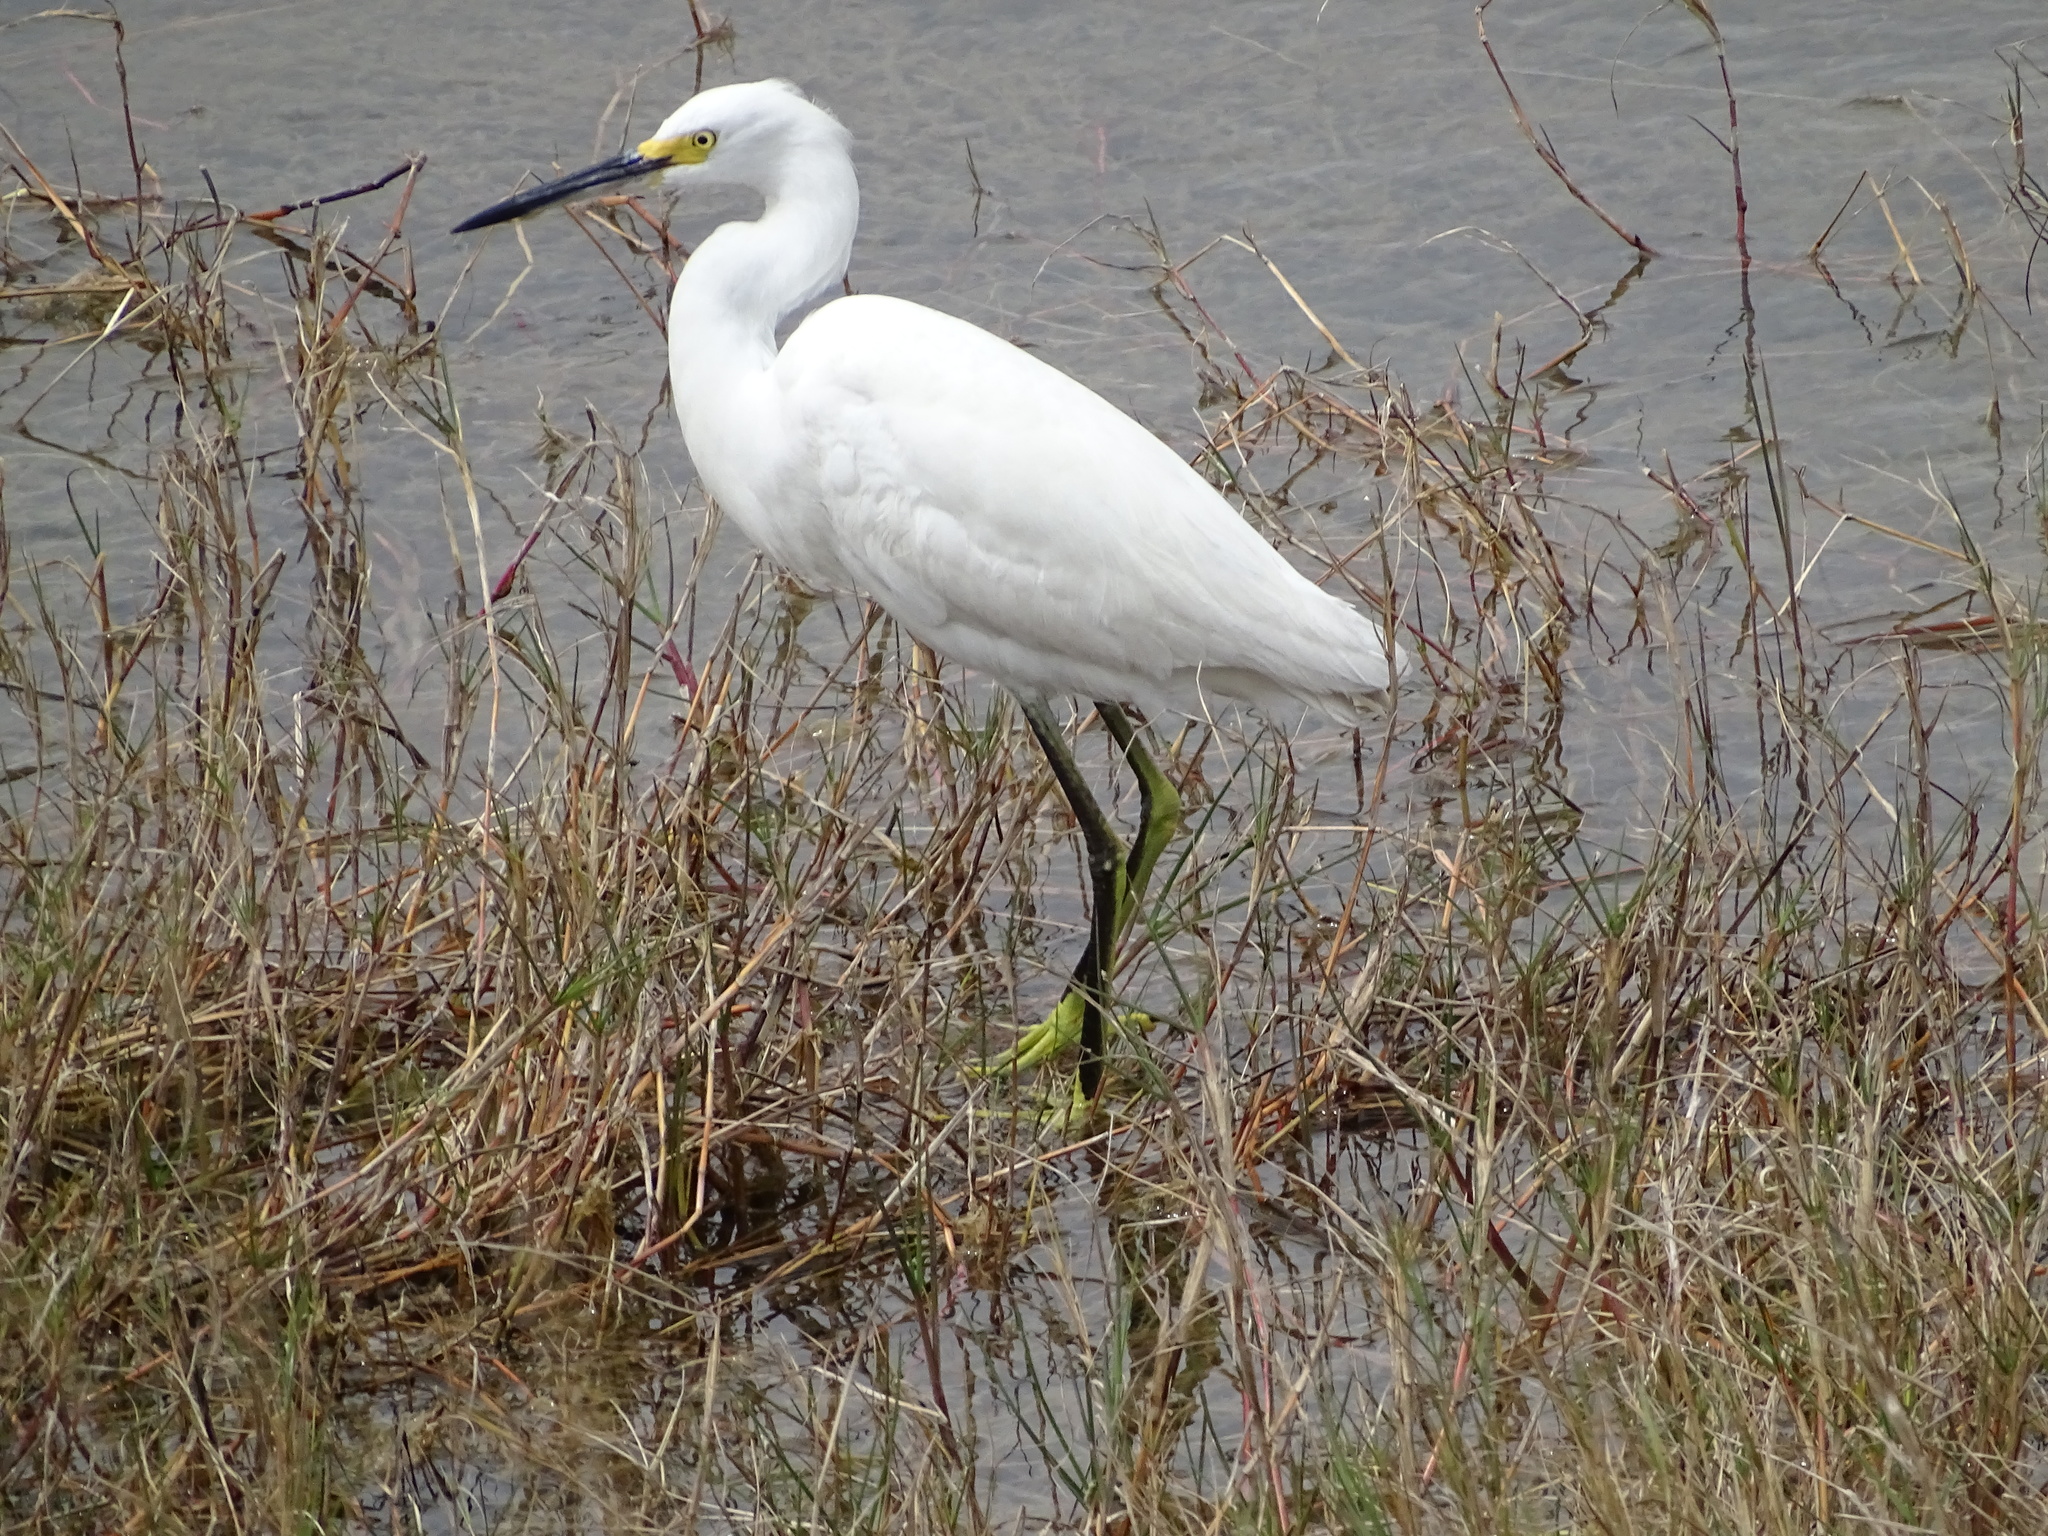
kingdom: Animalia
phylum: Chordata
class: Aves
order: Pelecaniformes
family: Ardeidae
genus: Egretta
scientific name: Egretta thula
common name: Snowy egret
